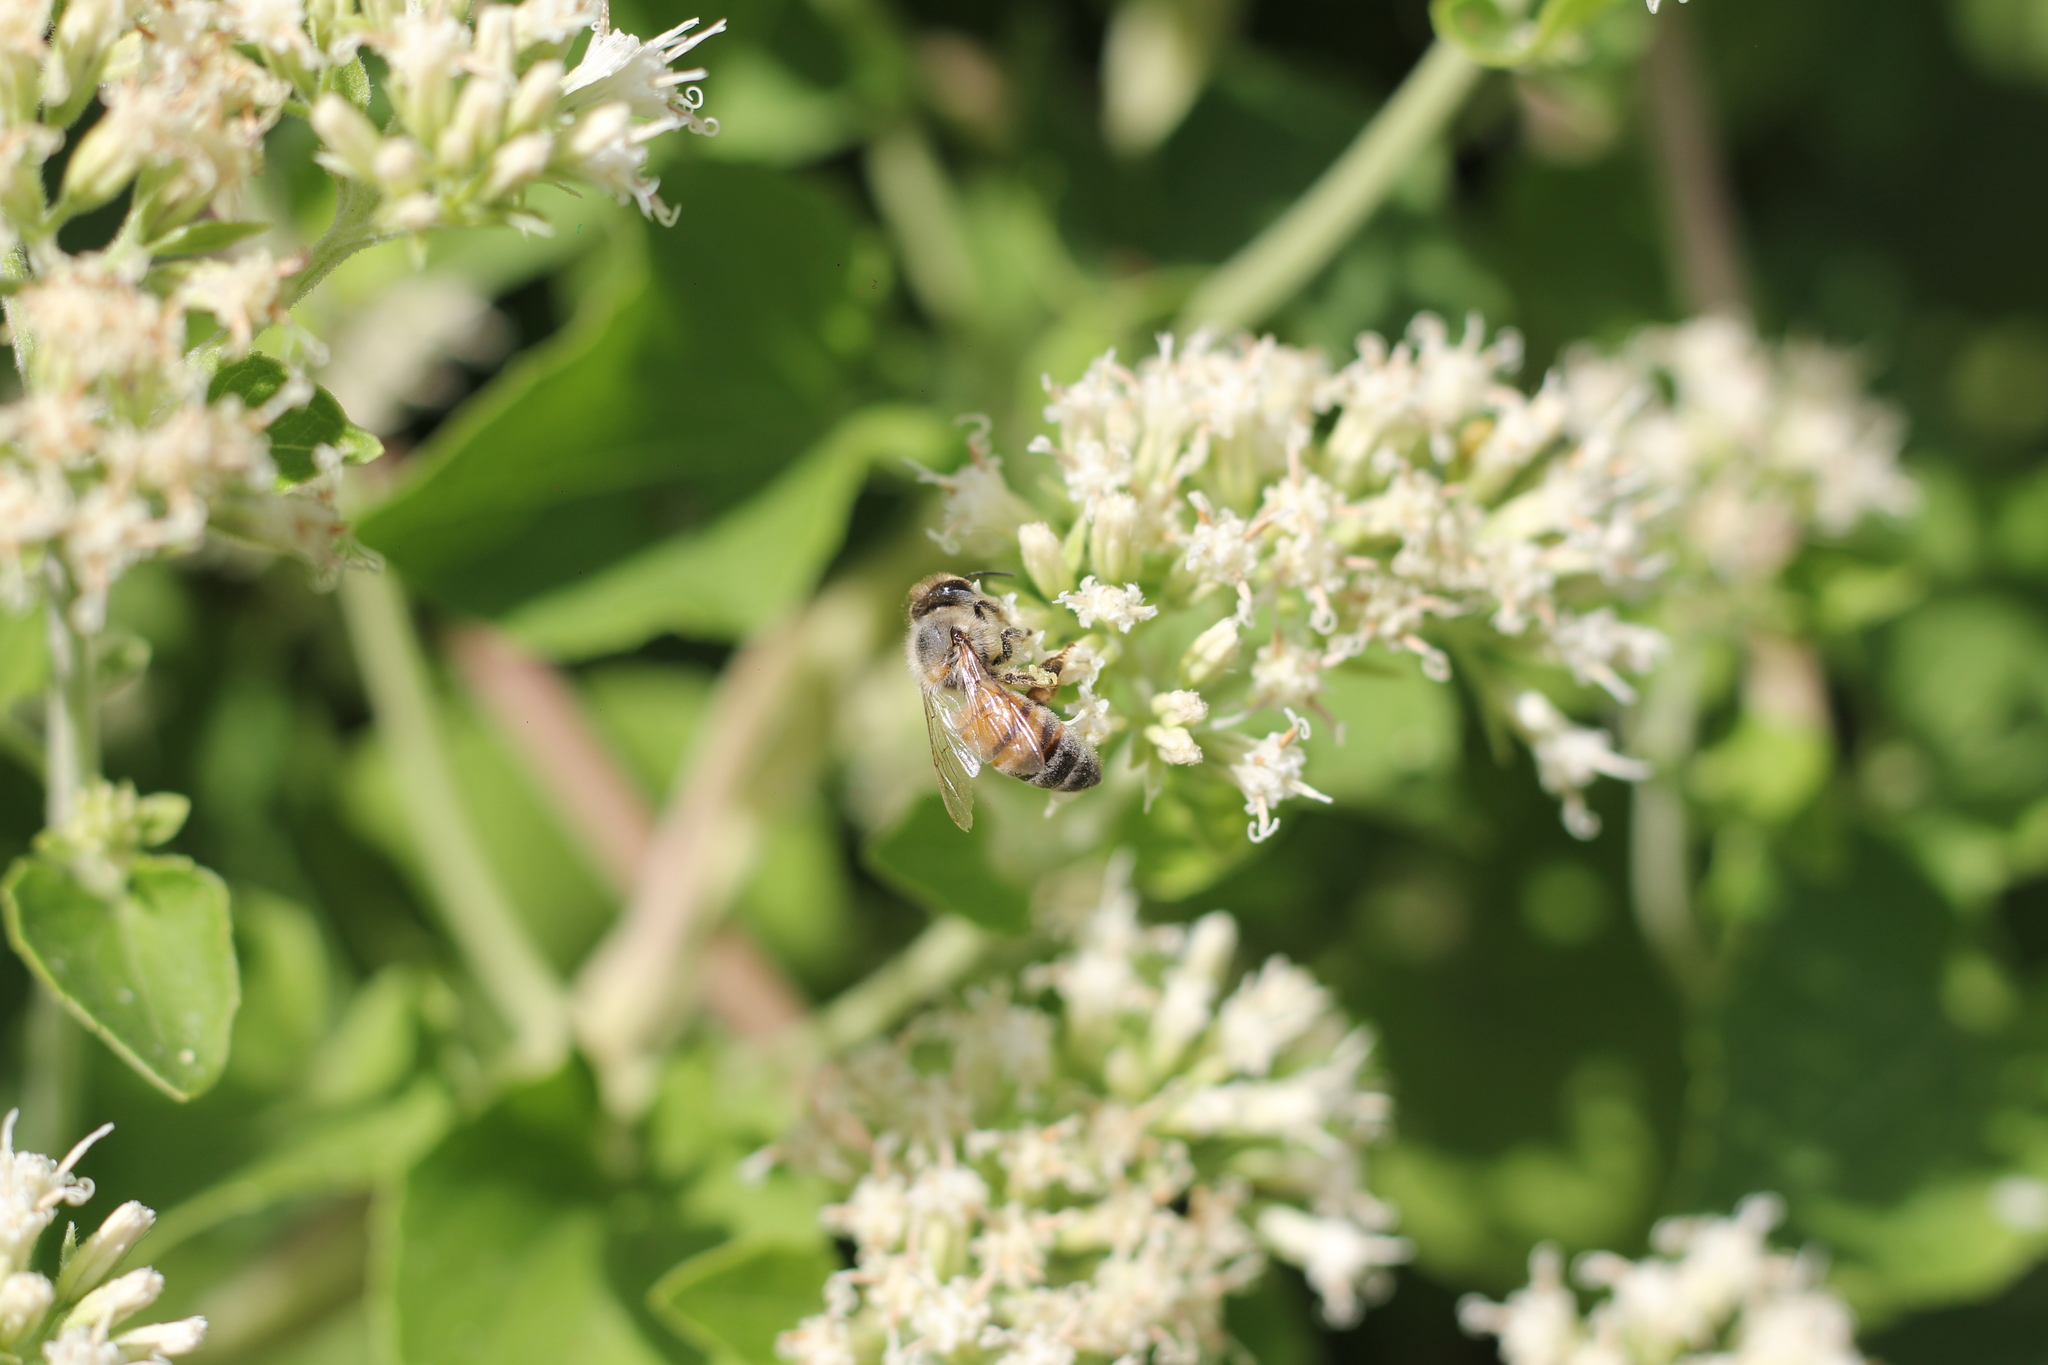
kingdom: Animalia
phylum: Arthropoda
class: Insecta
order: Hymenoptera
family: Apidae
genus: Apis
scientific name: Apis mellifera
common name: Honey bee
